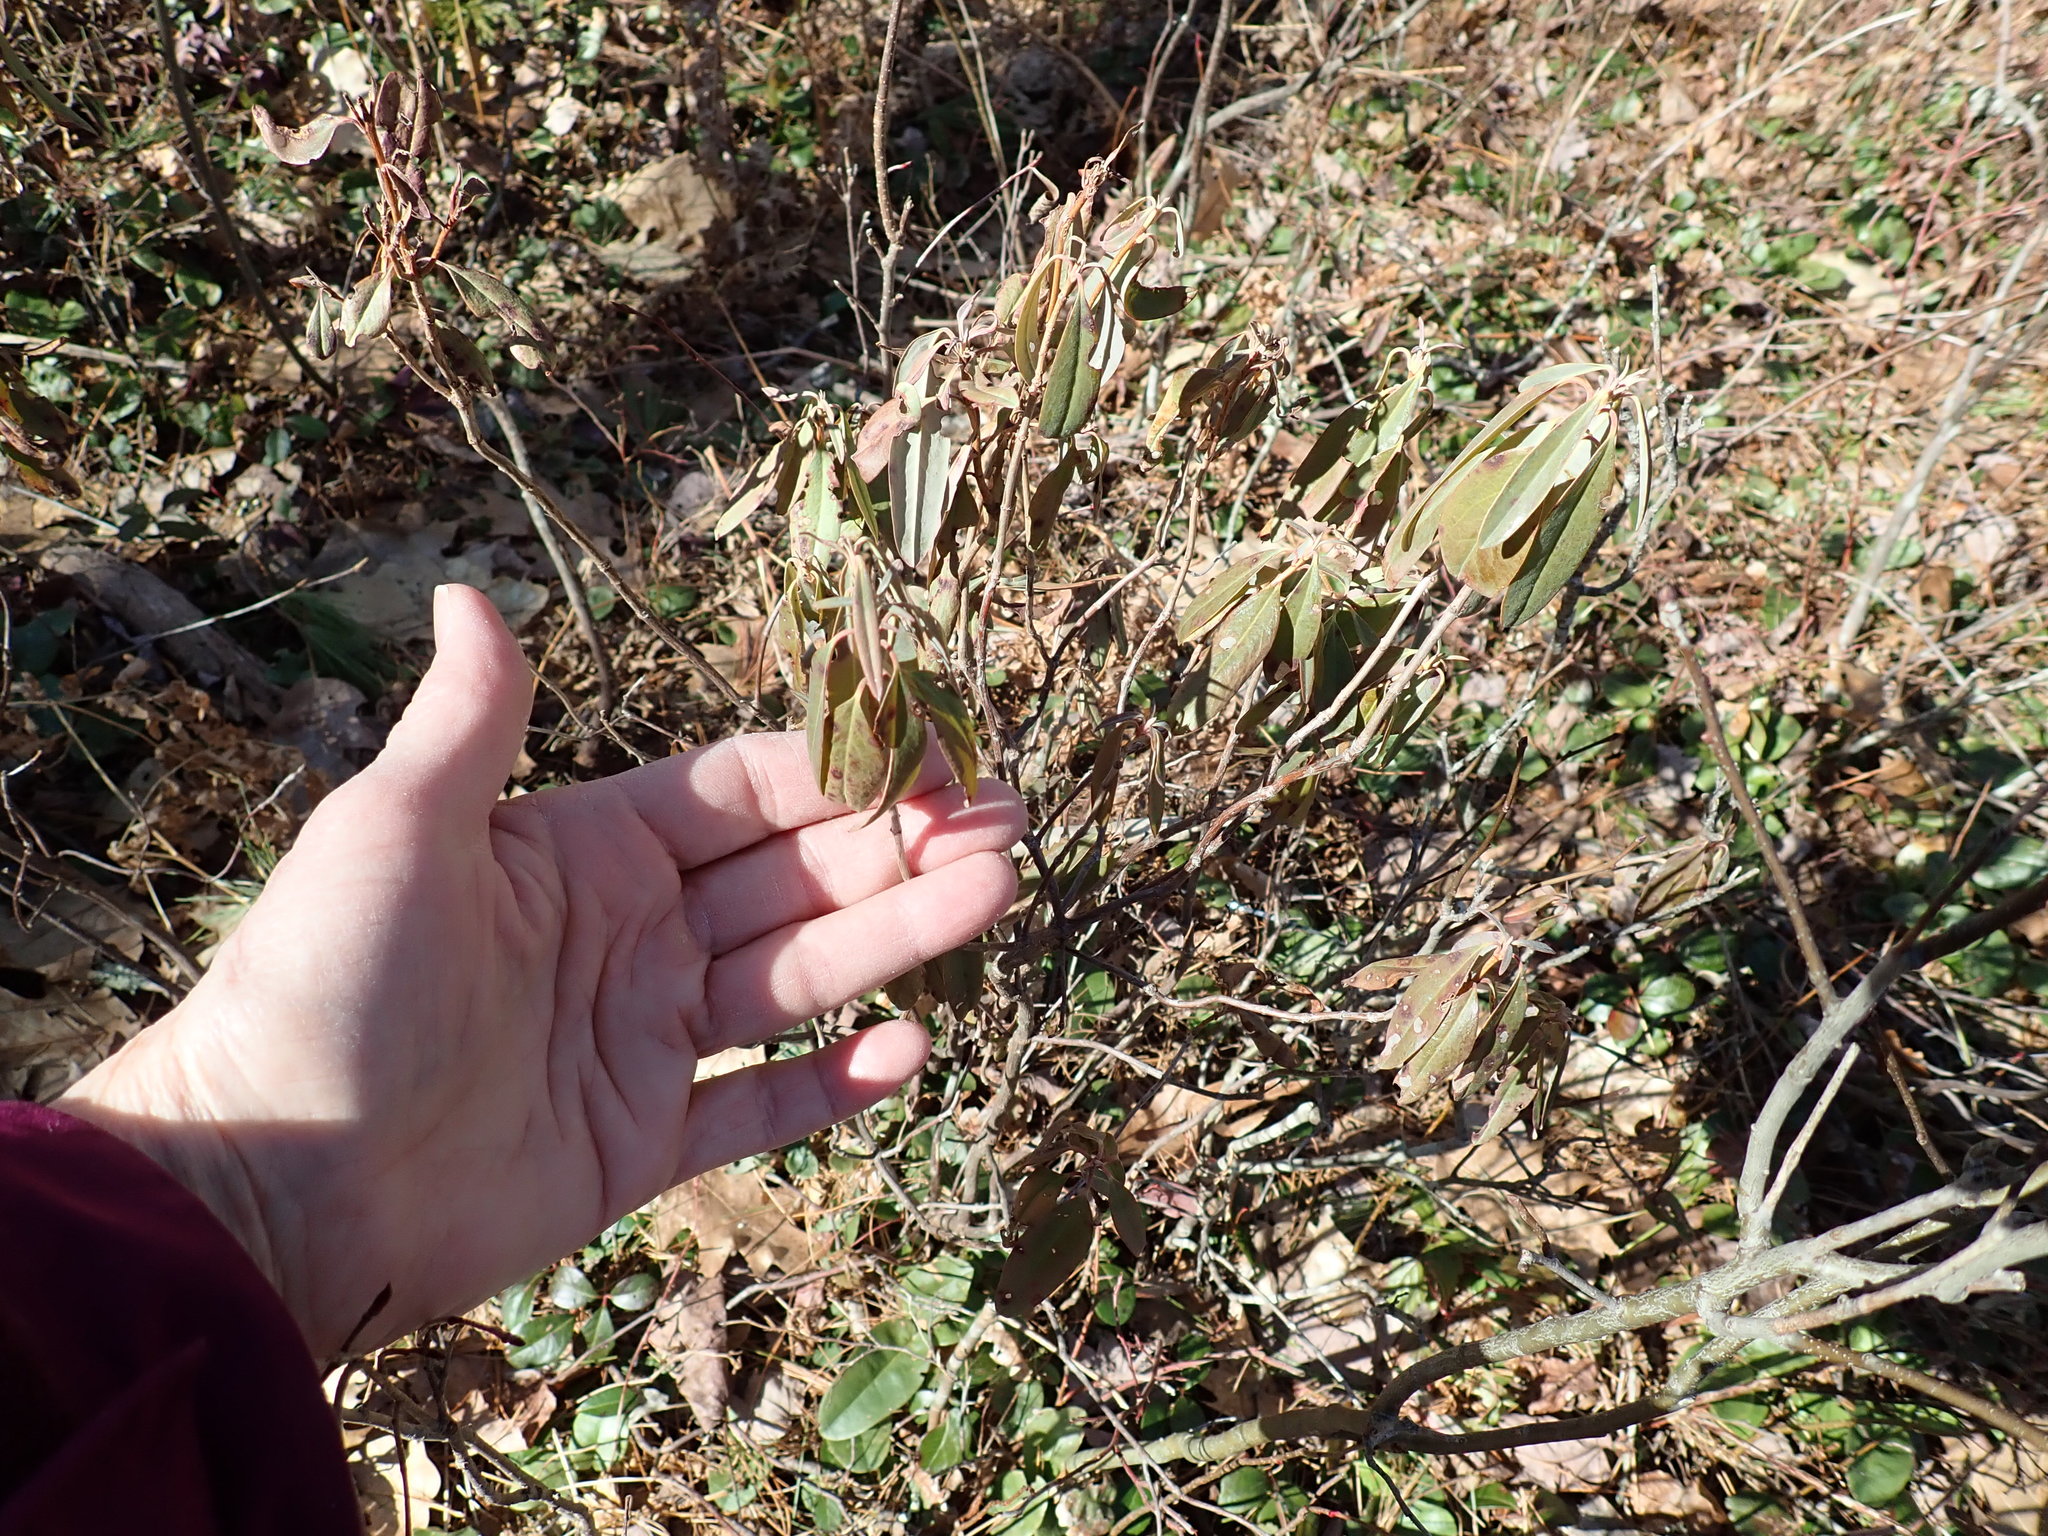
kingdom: Plantae
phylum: Tracheophyta
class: Magnoliopsida
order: Ericales
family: Ericaceae
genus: Kalmia
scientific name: Kalmia angustifolia
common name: Sheep-laurel
